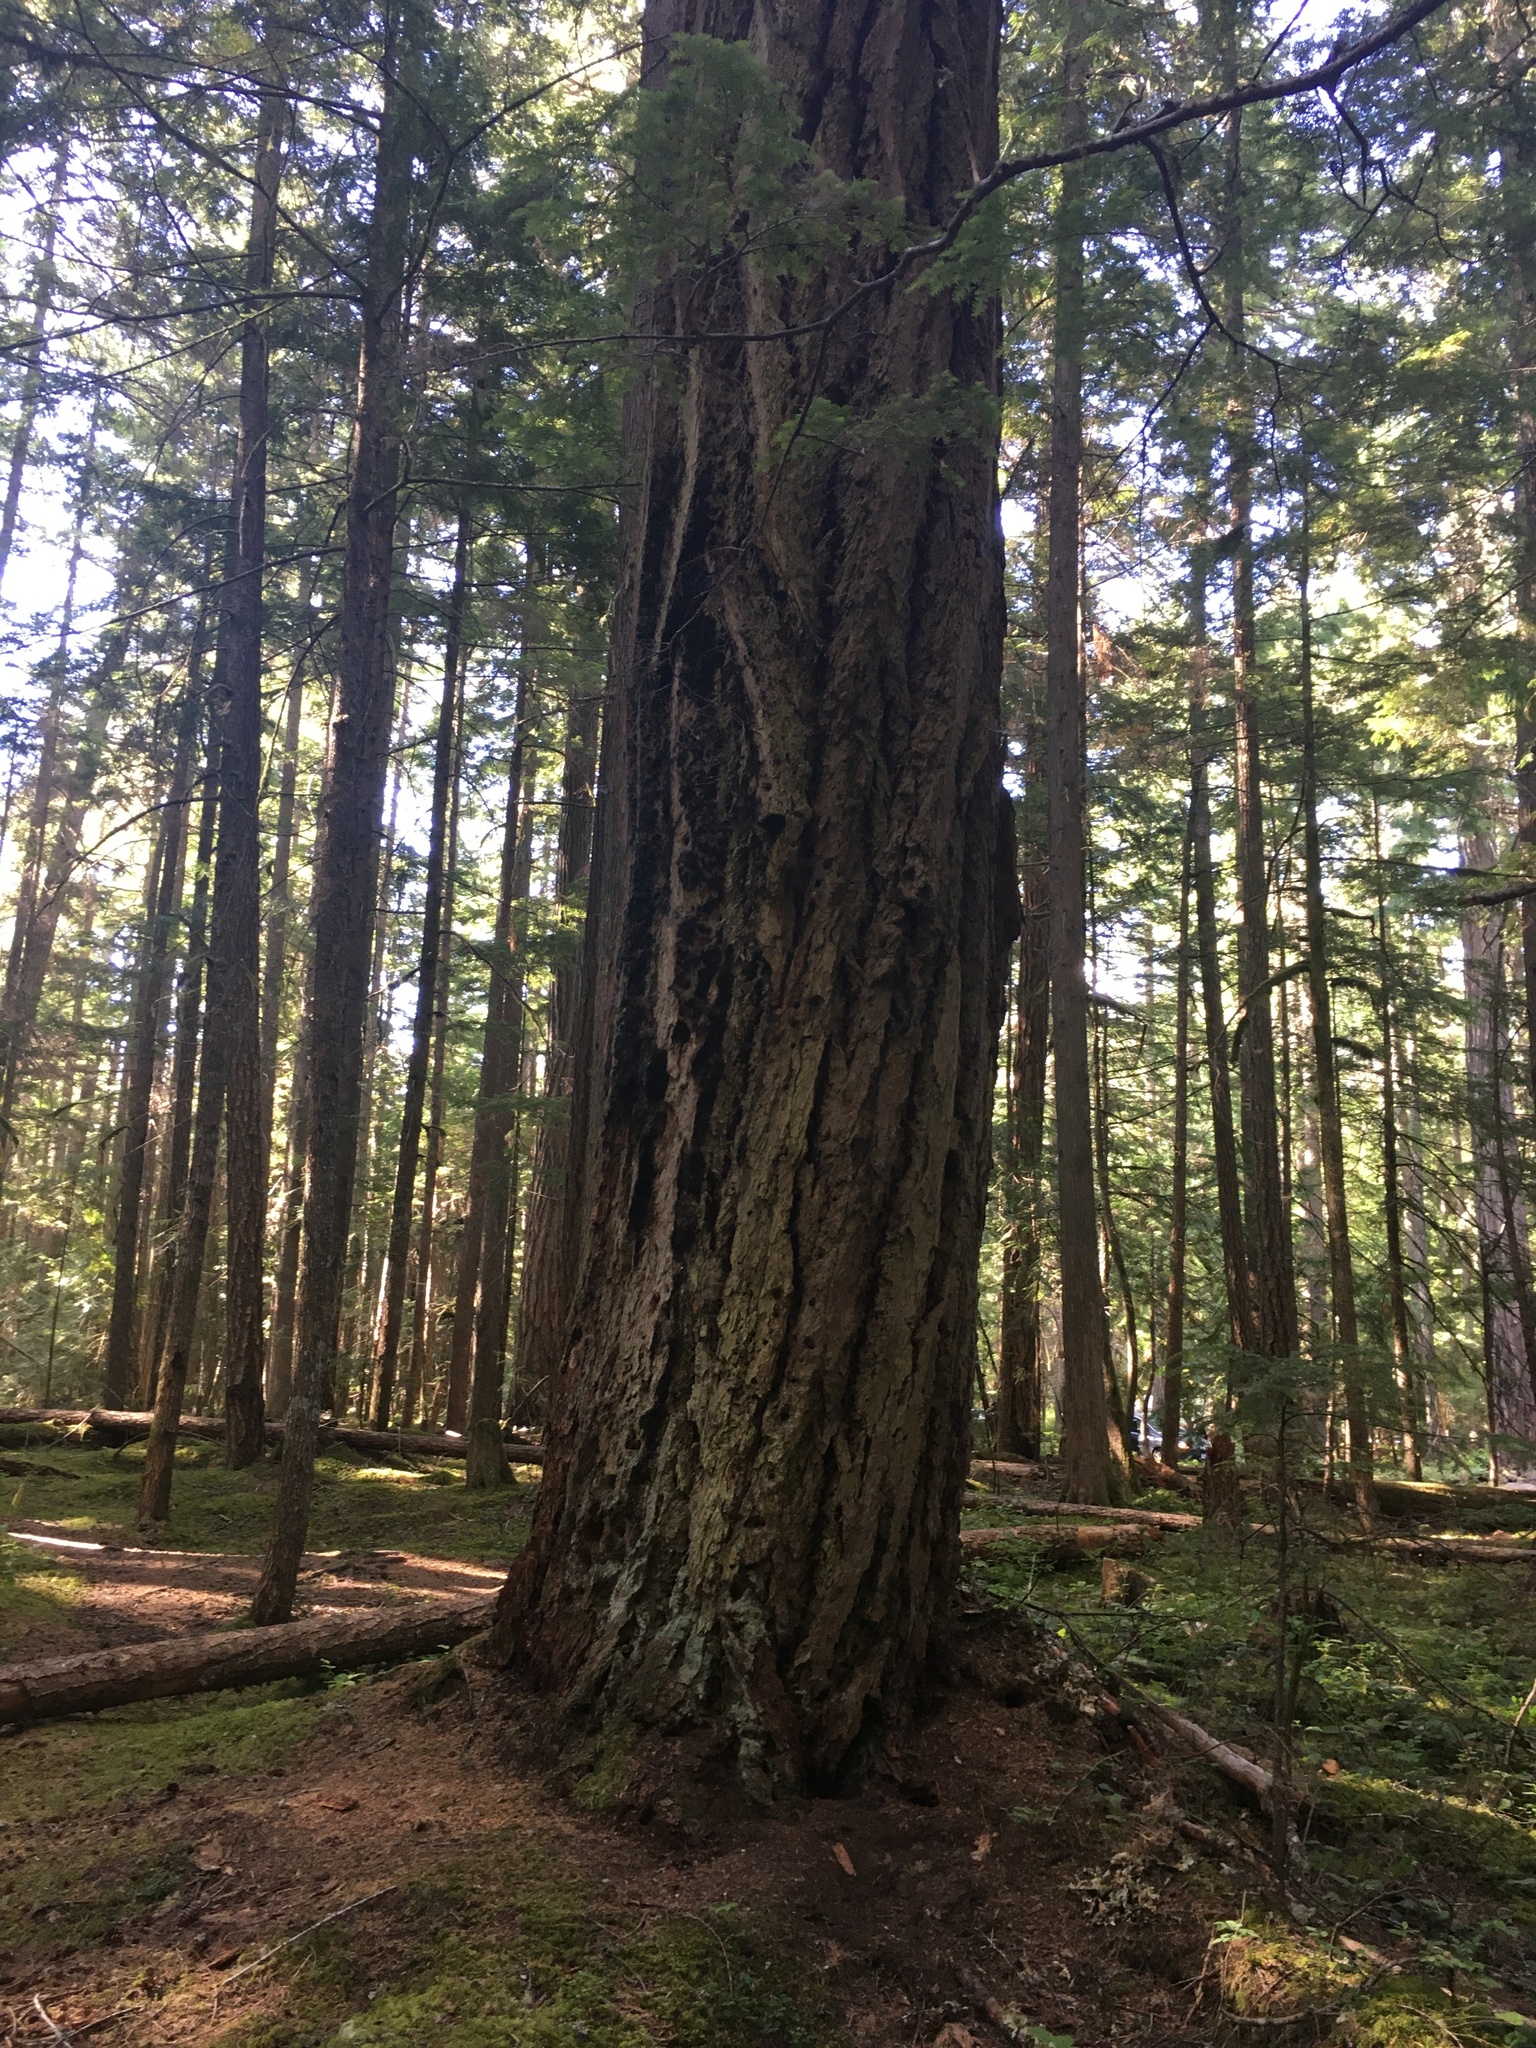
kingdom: Plantae
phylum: Tracheophyta
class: Pinopsida
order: Pinales
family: Pinaceae
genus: Pseudotsuga
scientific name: Pseudotsuga menziesii
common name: Douglas fir
